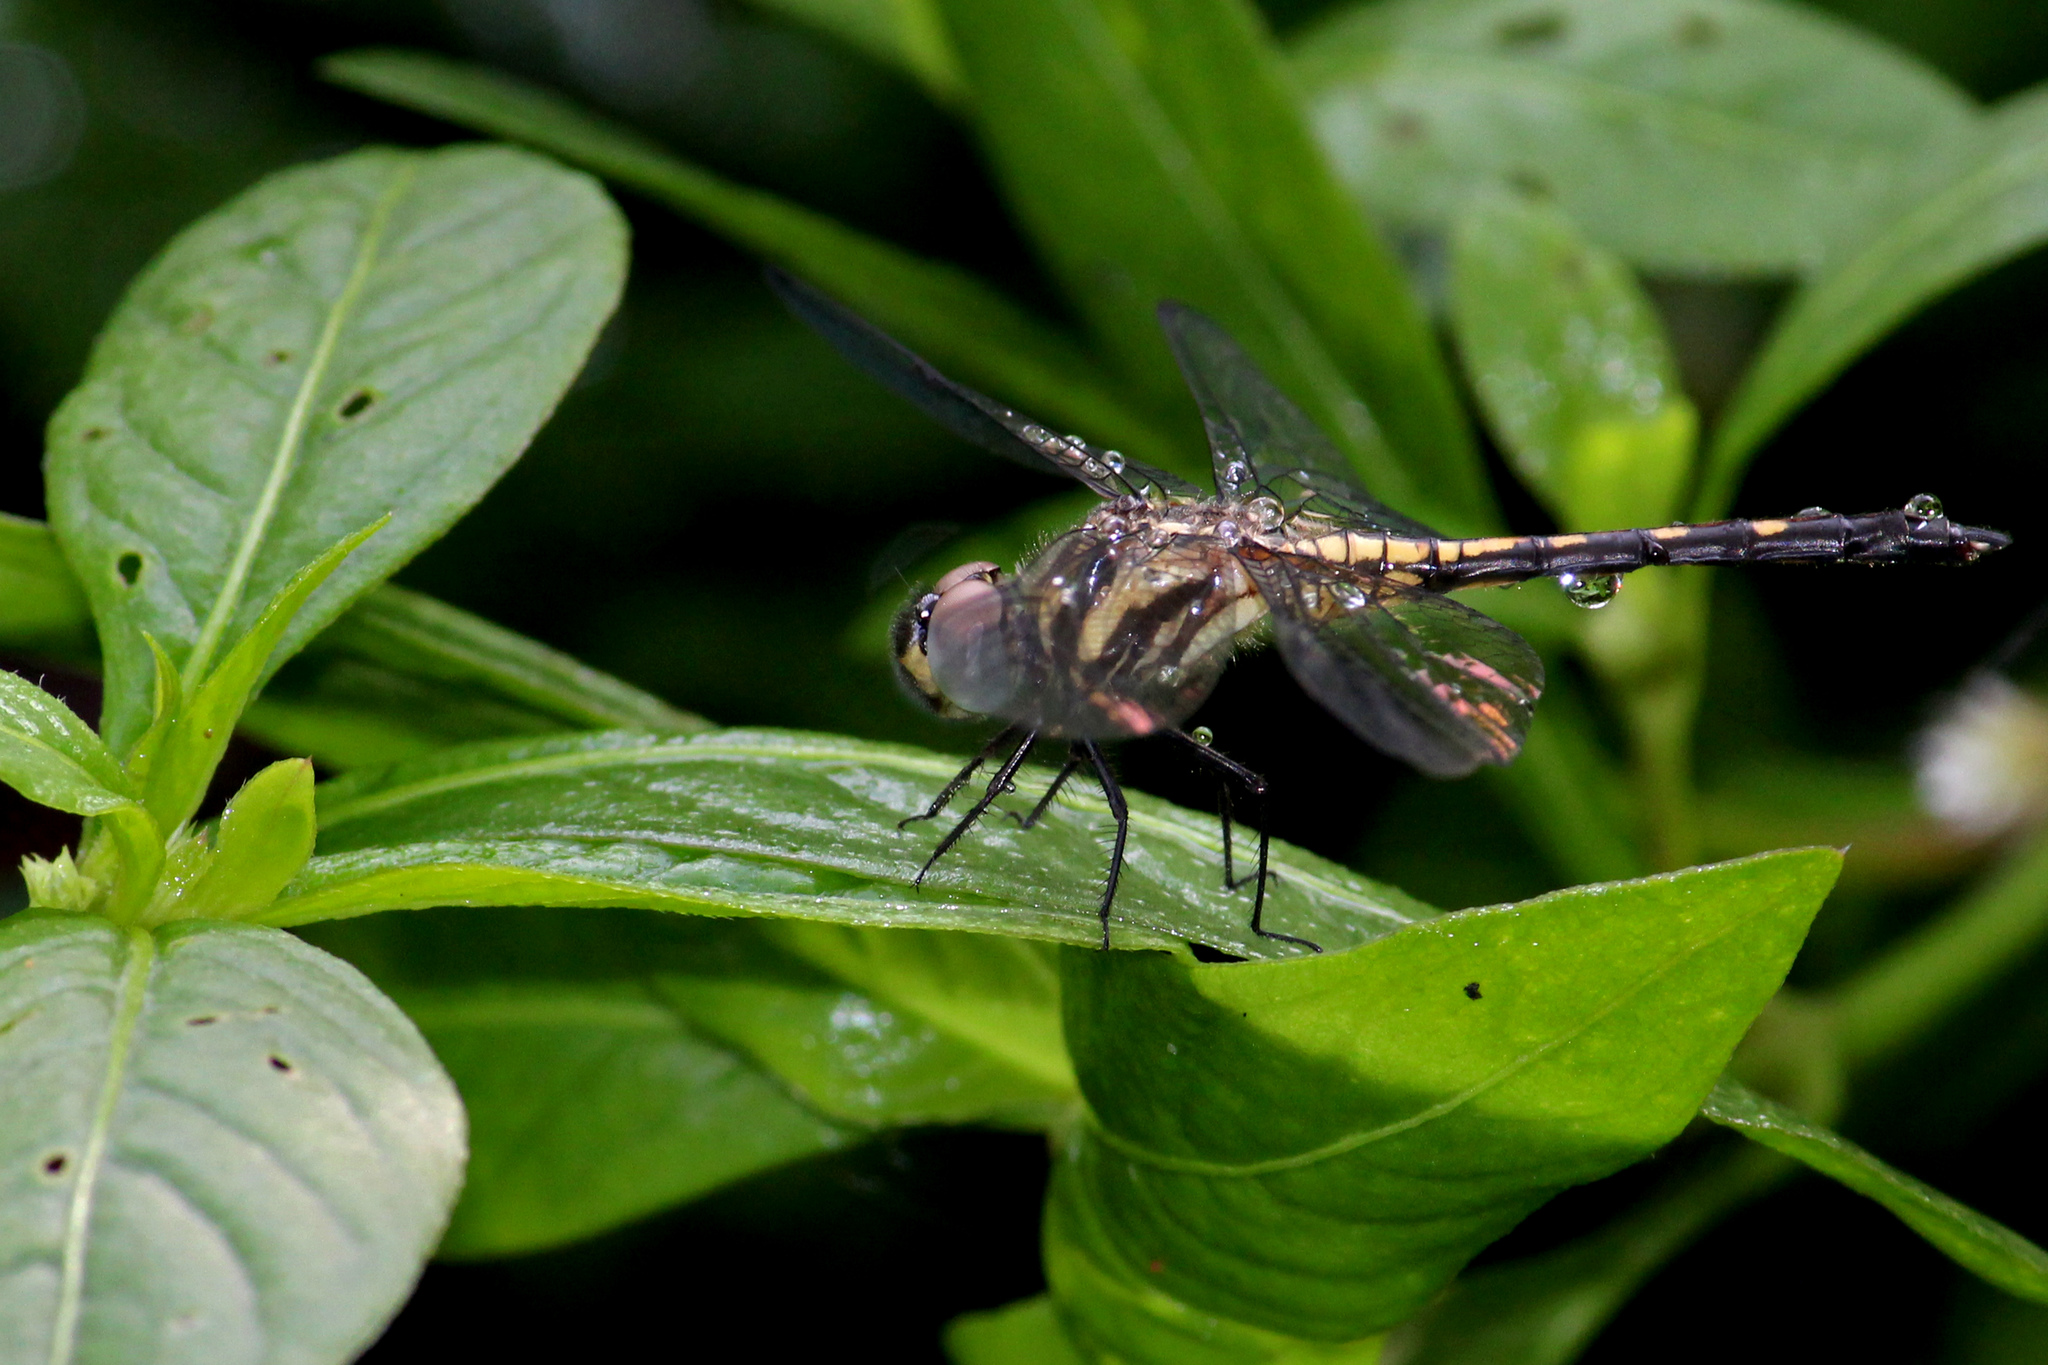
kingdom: Animalia
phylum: Arthropoda
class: Insecta
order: Odonata
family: Libellulidae
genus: Trithemis
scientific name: Trithemis festiva
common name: Indigo dropwing
